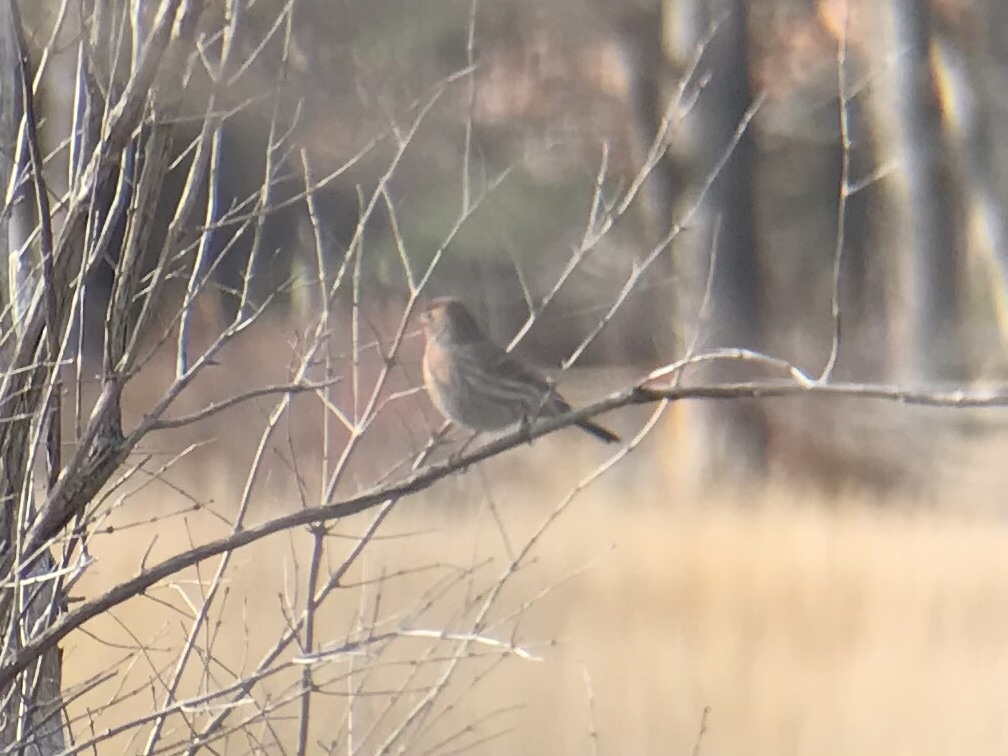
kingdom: Animalia
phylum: Chordata
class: Aves
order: Passeriformes
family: Fringillidae
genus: Haemorhous
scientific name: Haemorhous mexicanus
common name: House finch
